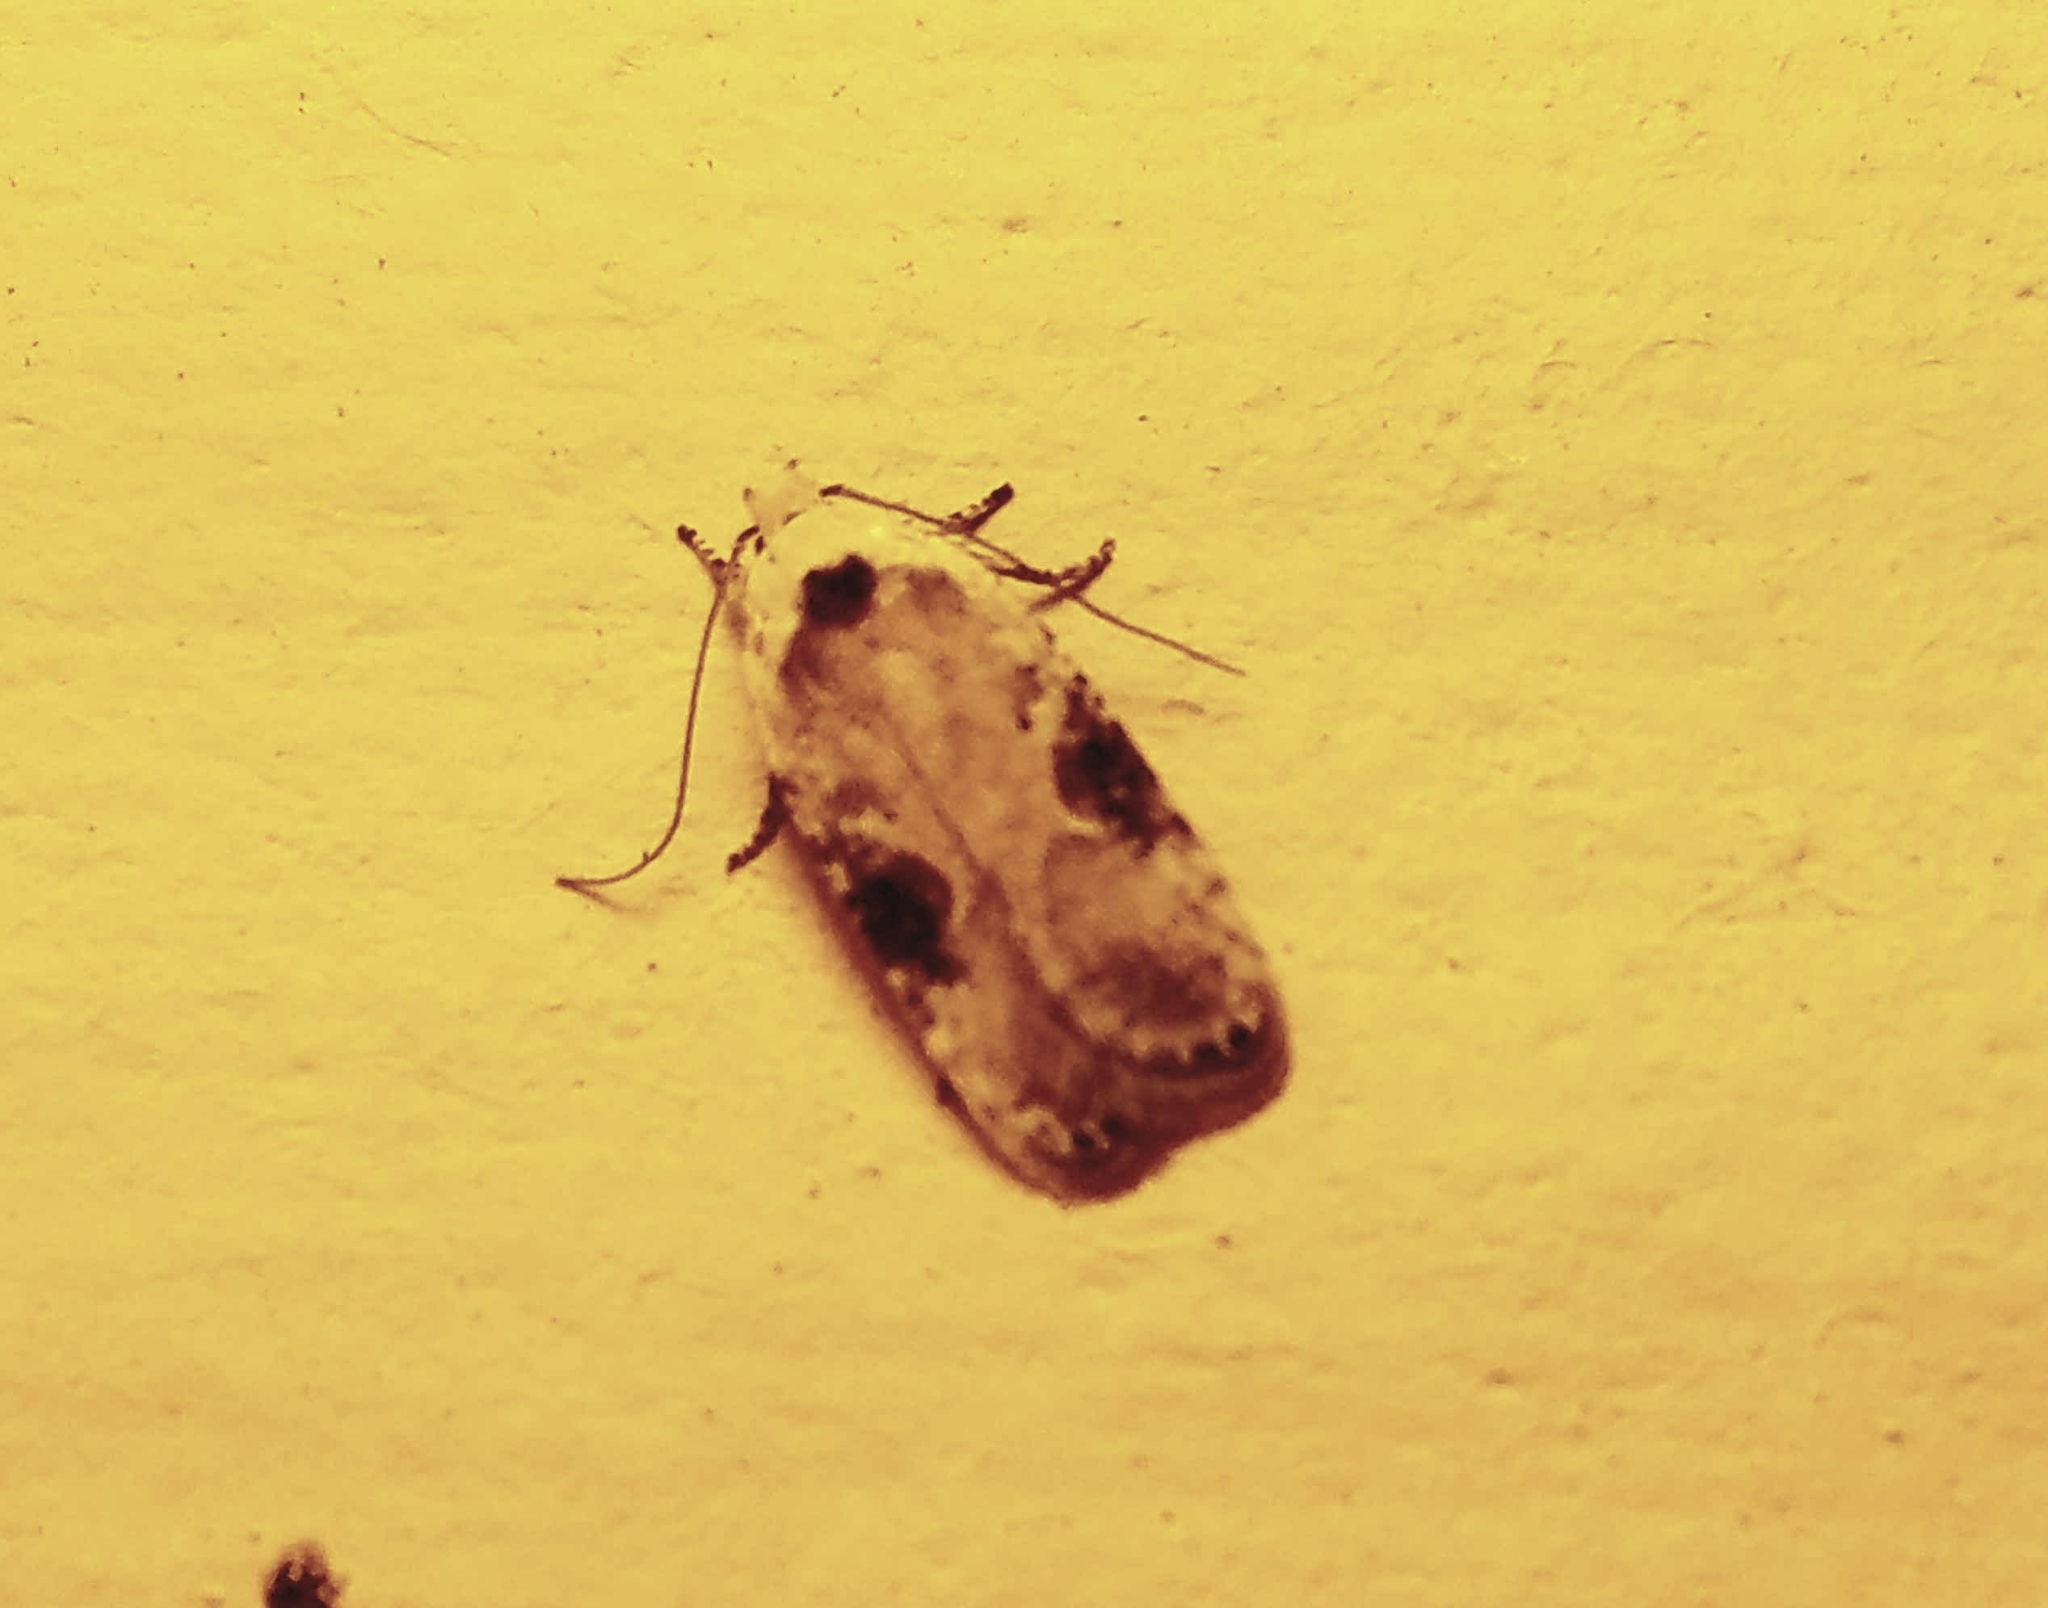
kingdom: Animalia
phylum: Arthropoda
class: Insecta
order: Lepidoptera
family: Depressariidae
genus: Agonopterix
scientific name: Agonopterix alstroemeriana
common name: Moth
